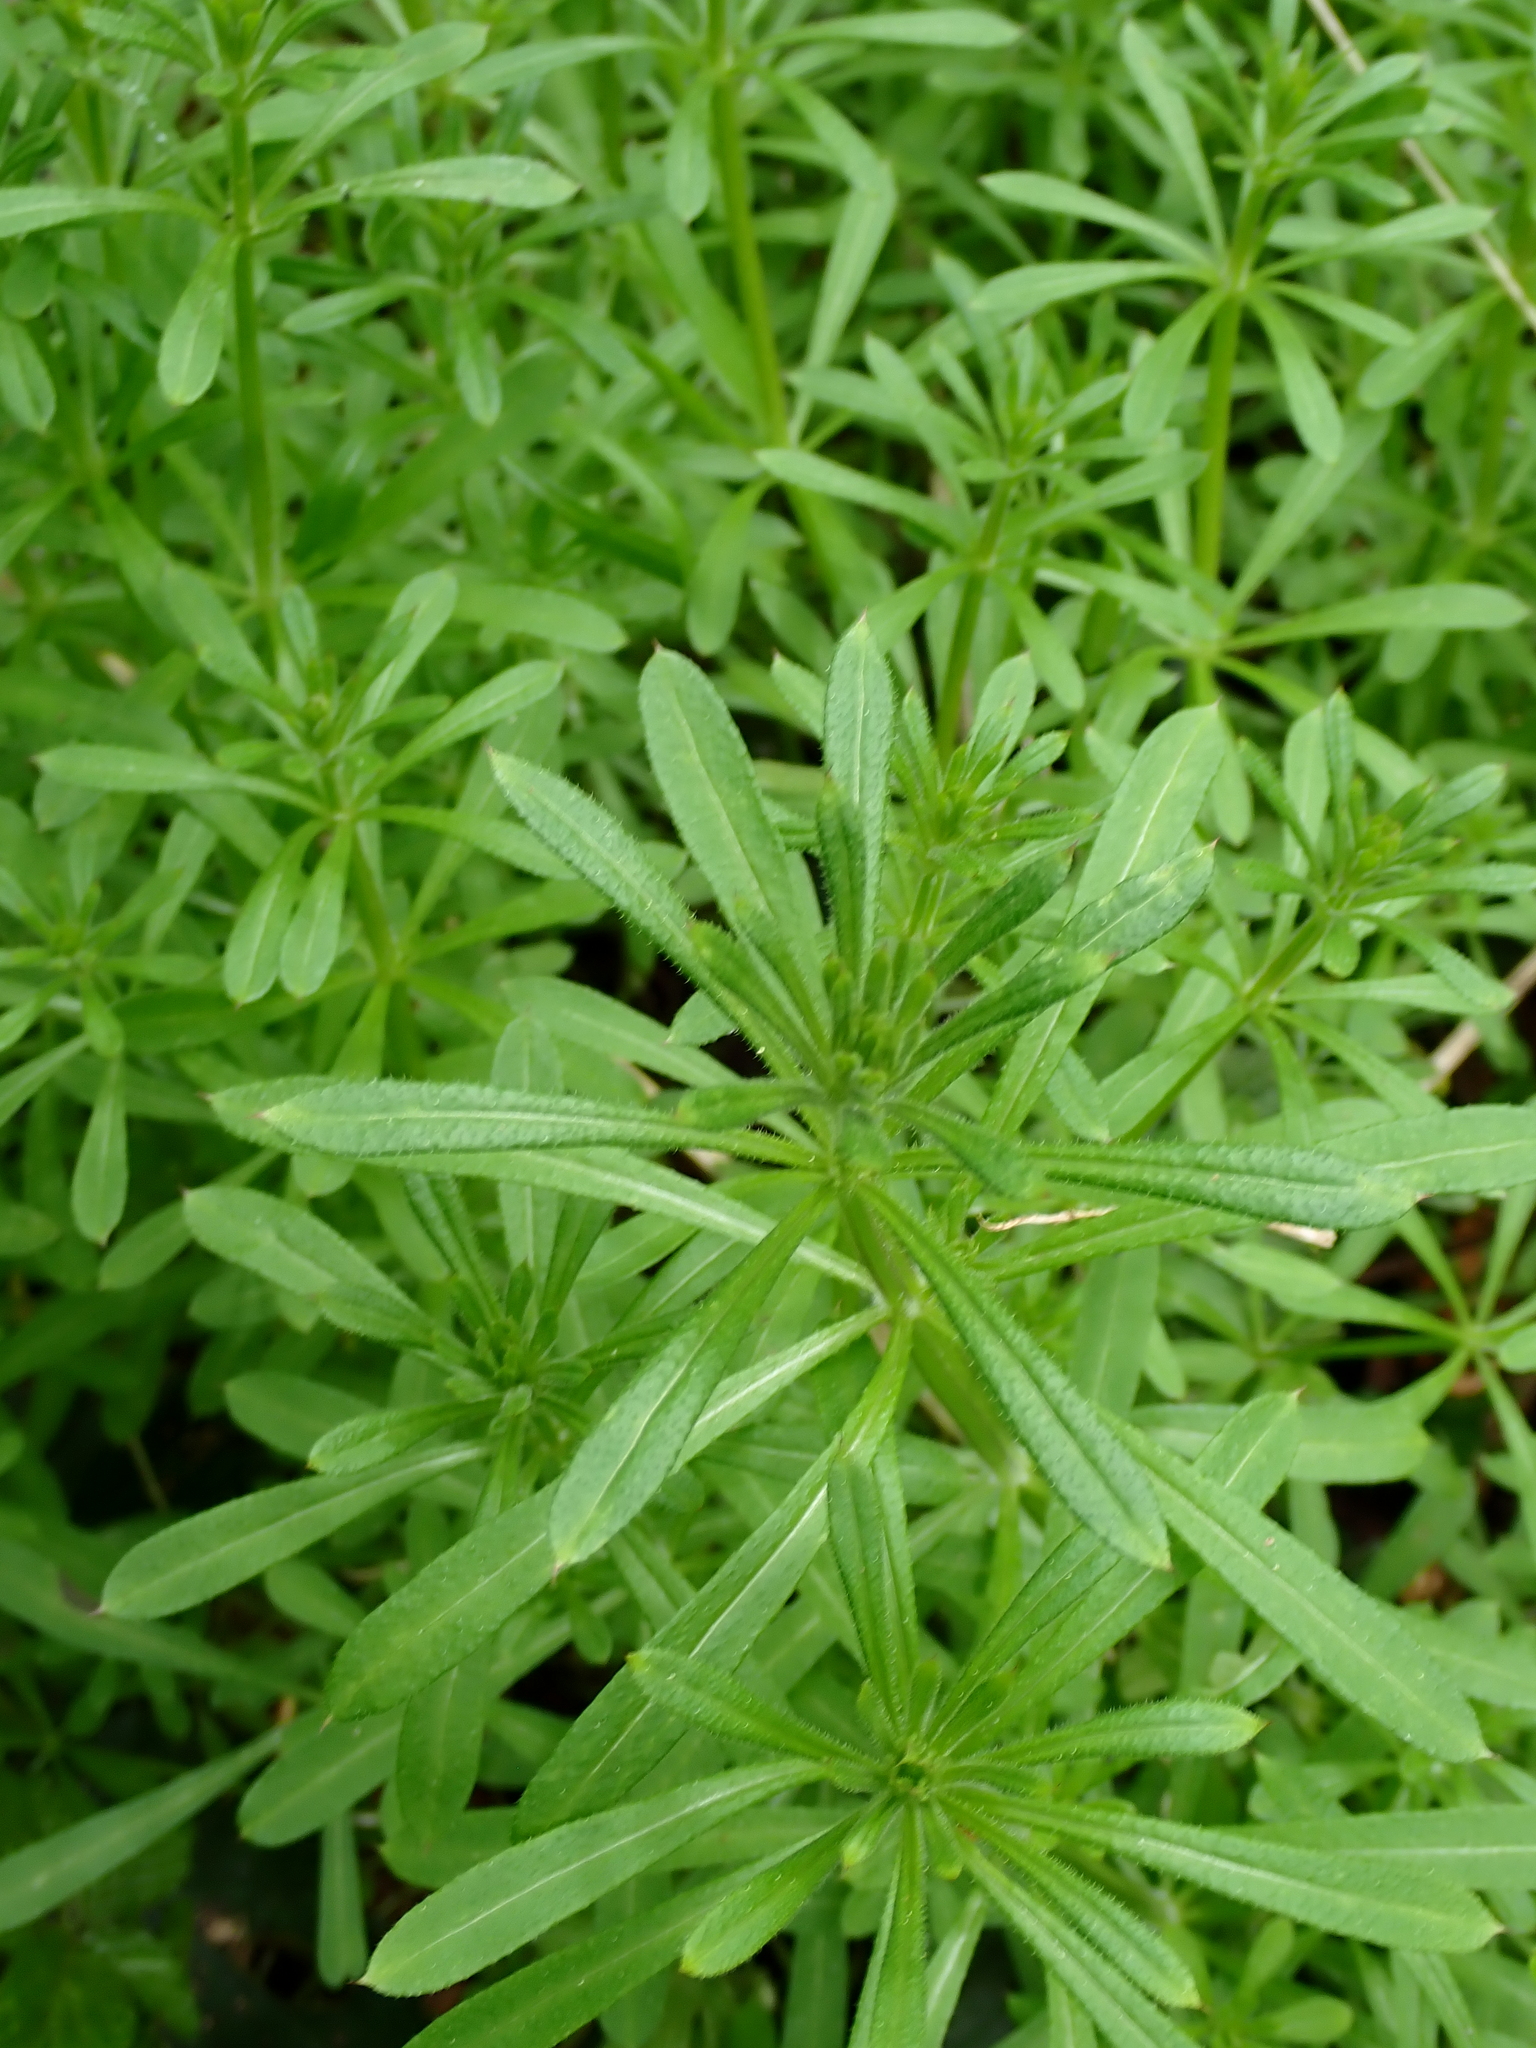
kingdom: Plantae
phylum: Tracheophyta
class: Magnoliopsida
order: Gentianales
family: Rubiaceae
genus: Galium
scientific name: Galium aparine
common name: Cleavers
